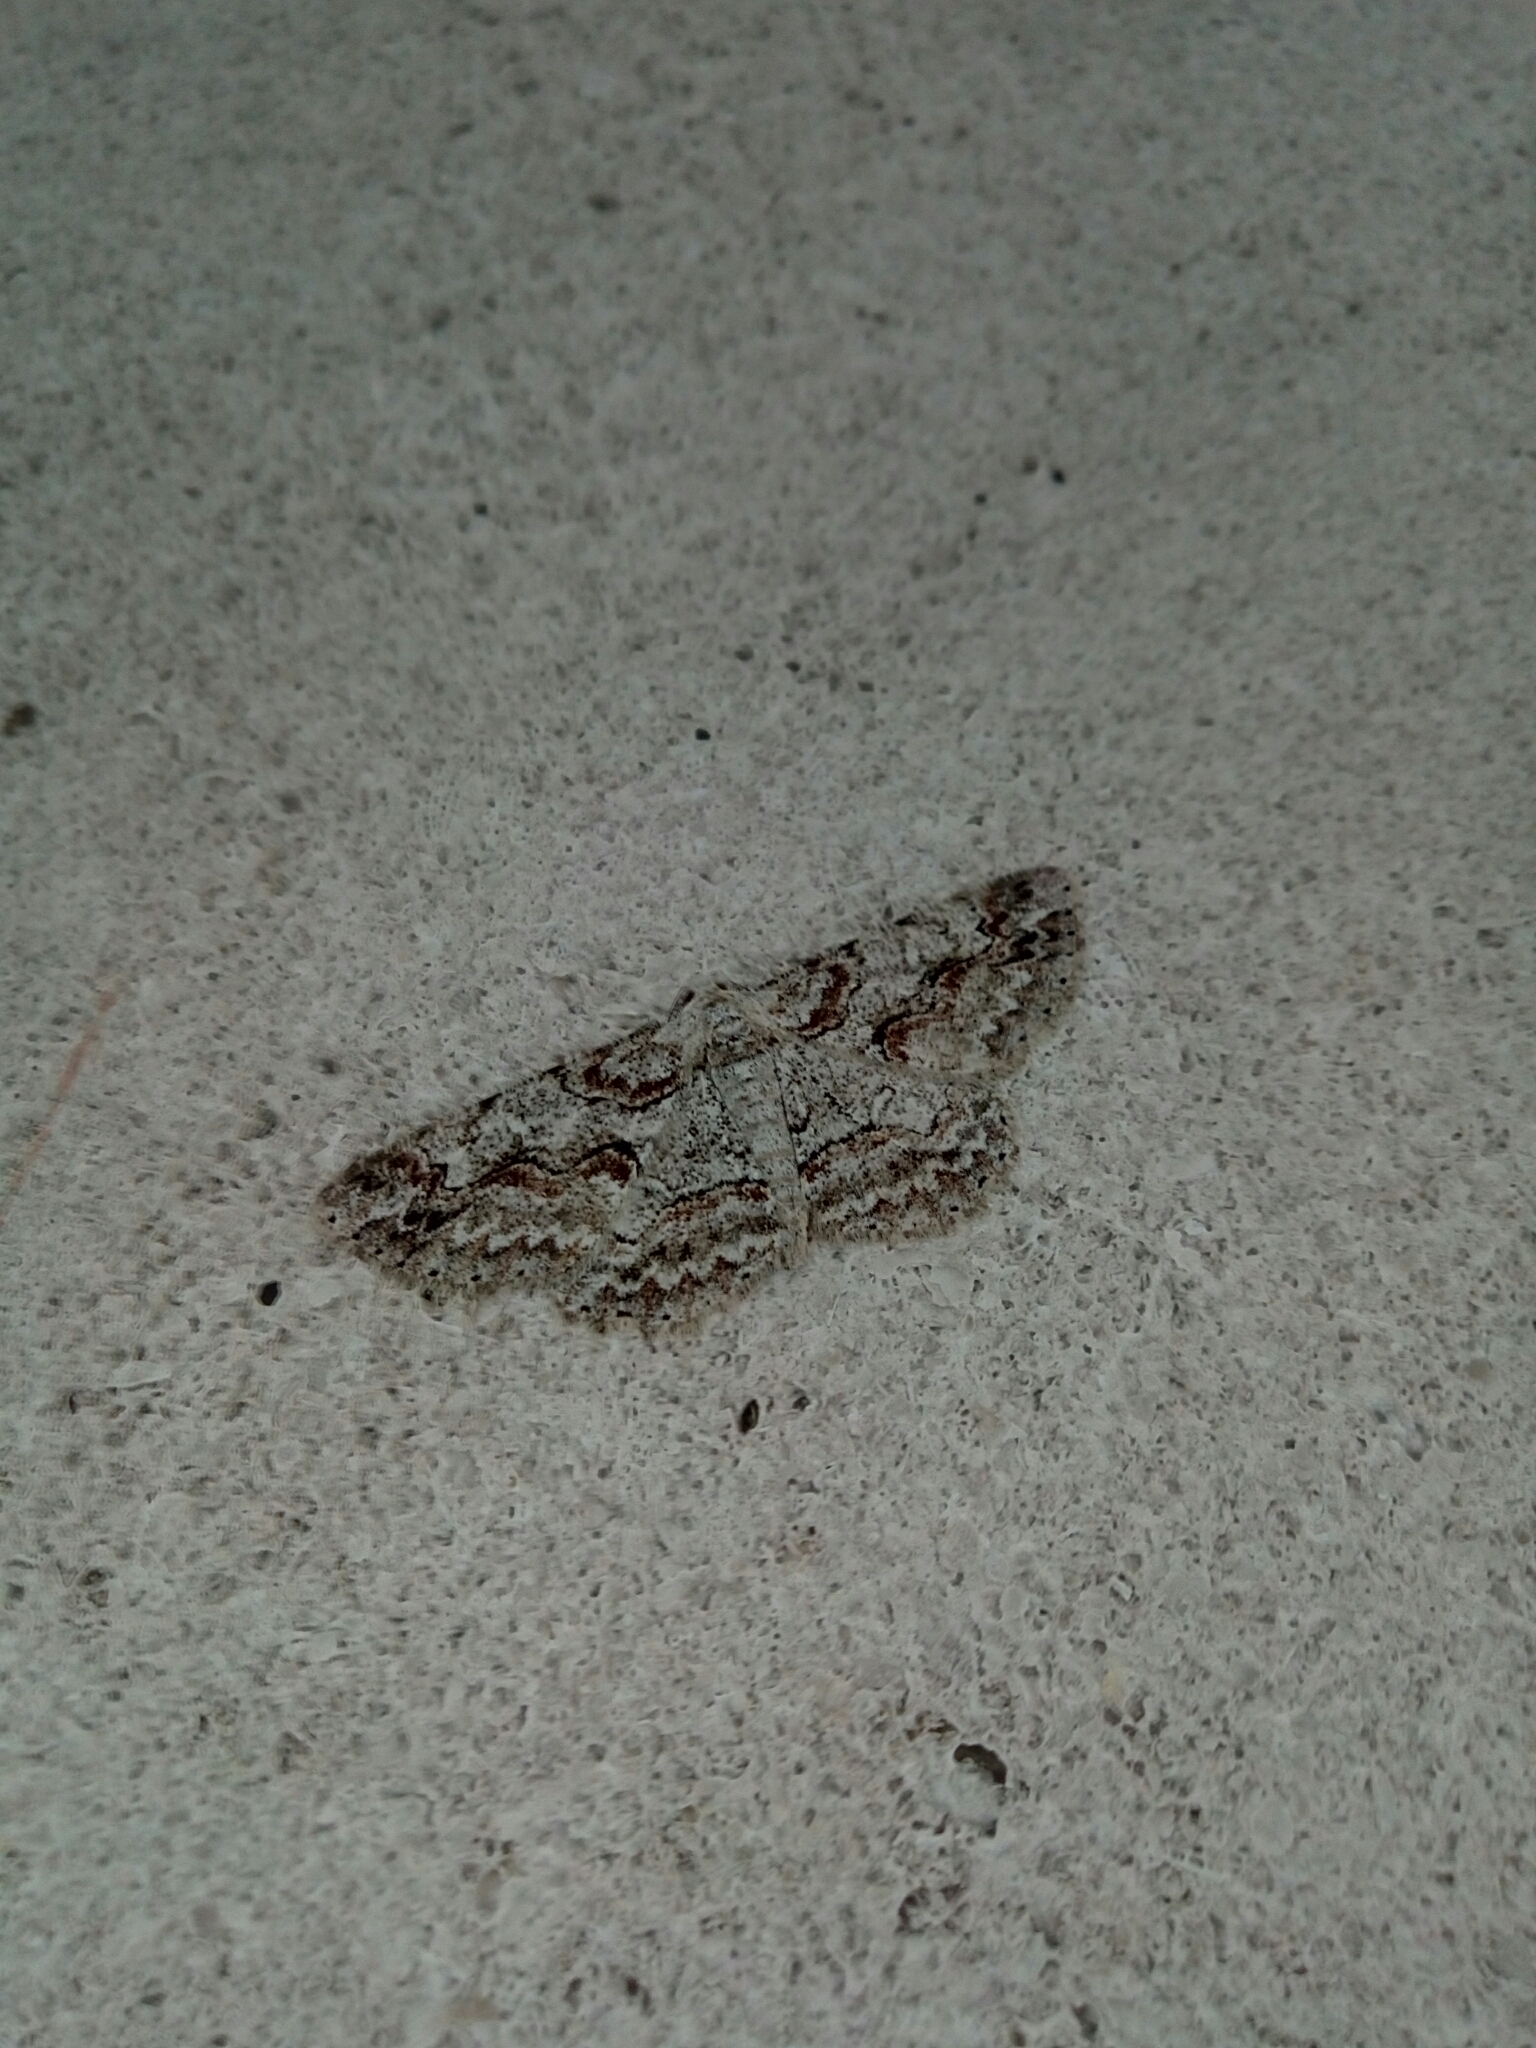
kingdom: Animalia
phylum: Arthropoda
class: Insecta
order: Lepidoptera
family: Geometridae
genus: Iridopsis
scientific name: Iridopsis defectaria
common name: Brown-shaded gray
